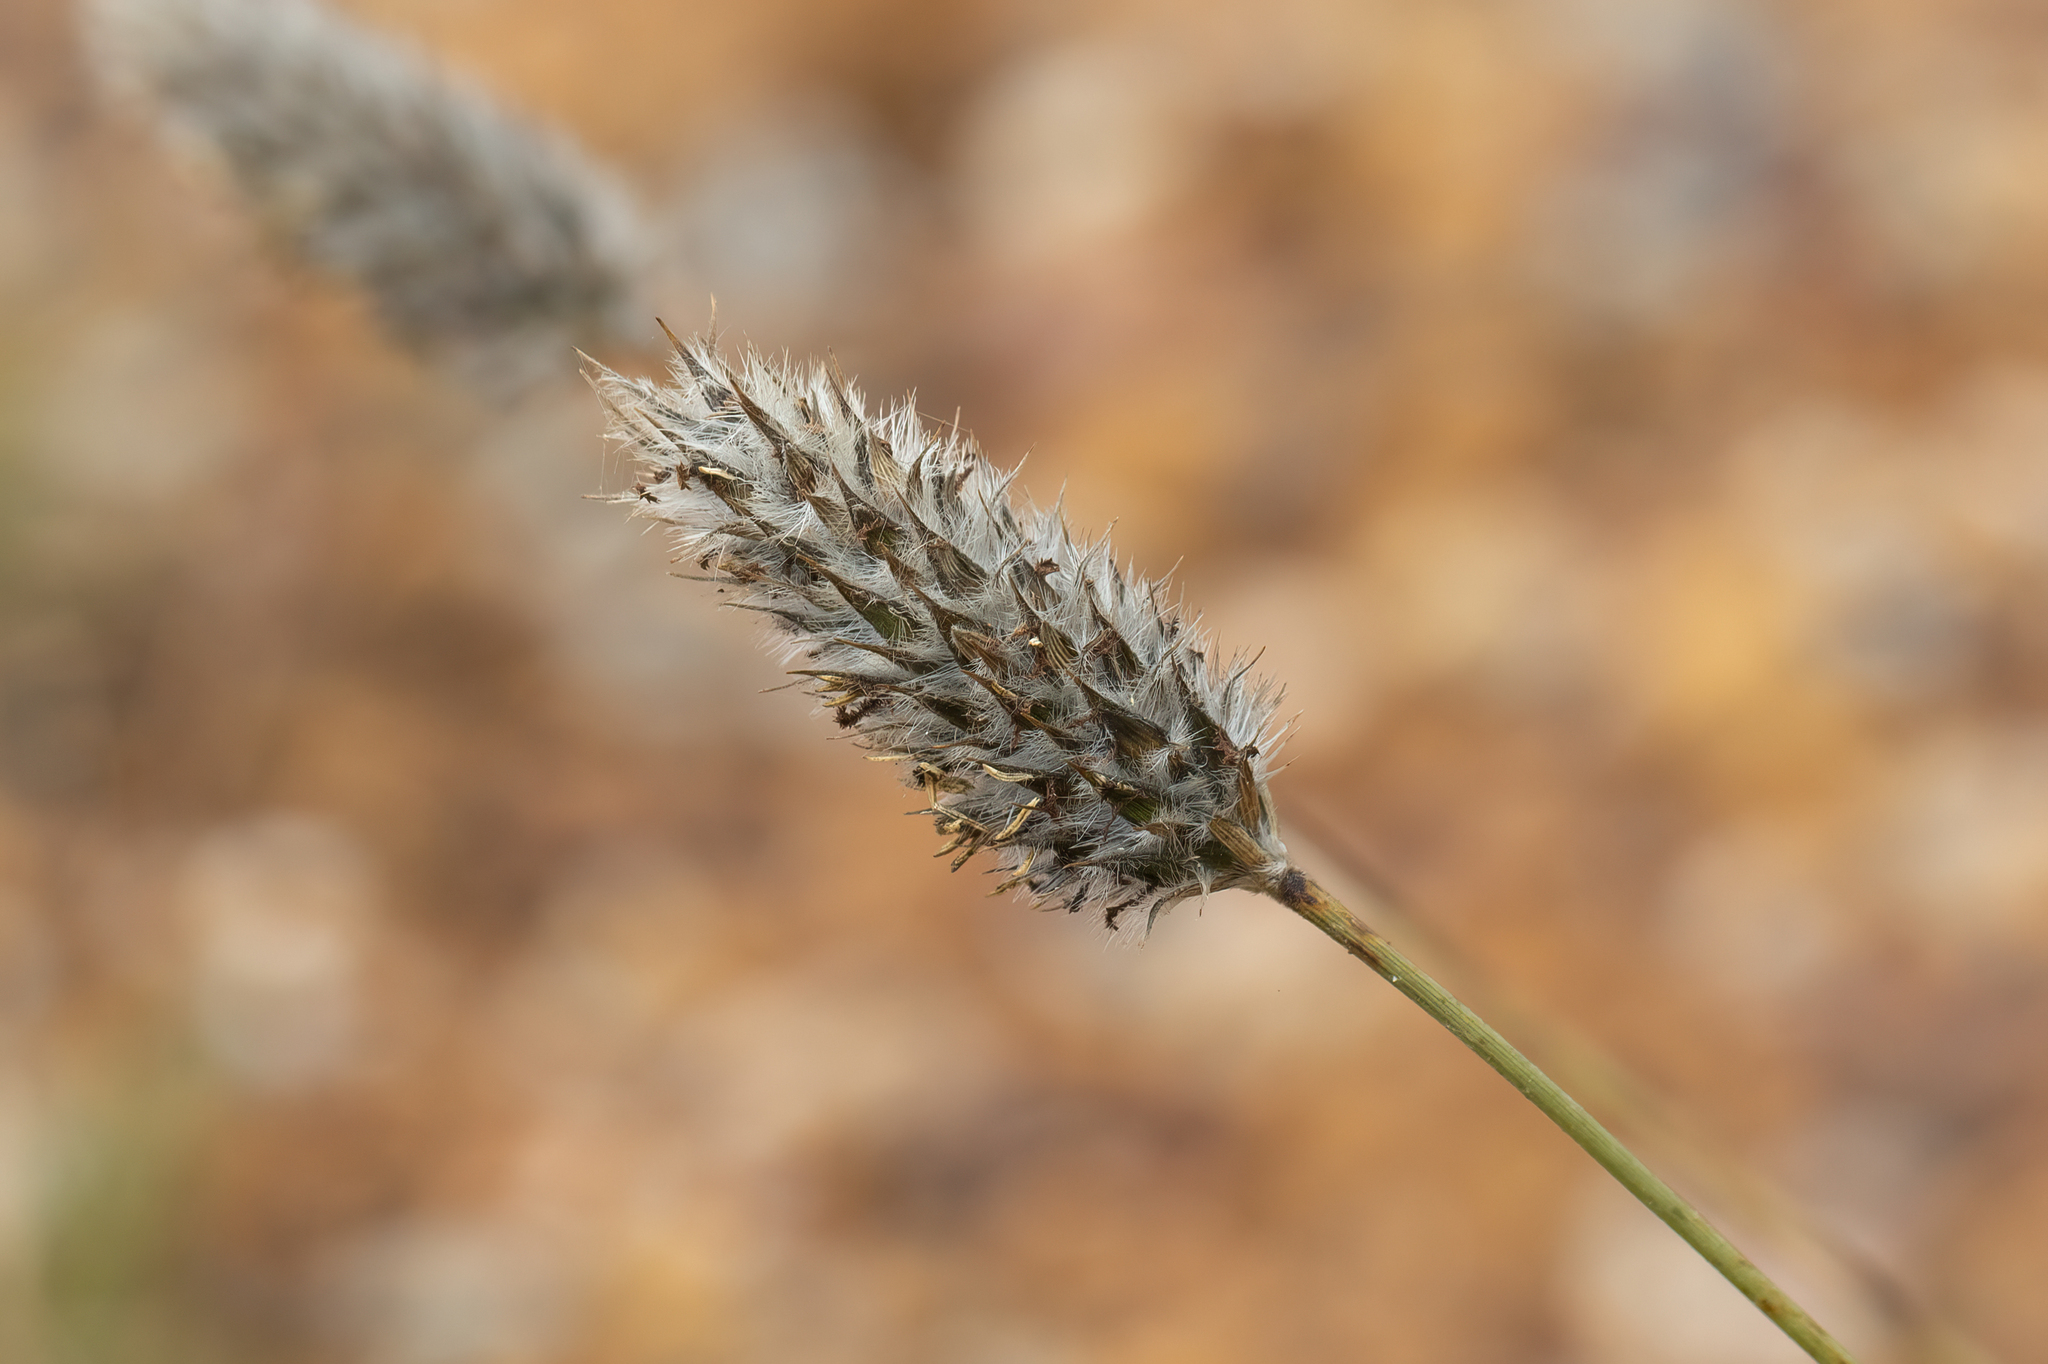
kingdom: Plantae
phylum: Tracheophyta
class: Liliopsida
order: Poales
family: Poaceae
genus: Neurachne
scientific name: Neurachne alopecuroidea
